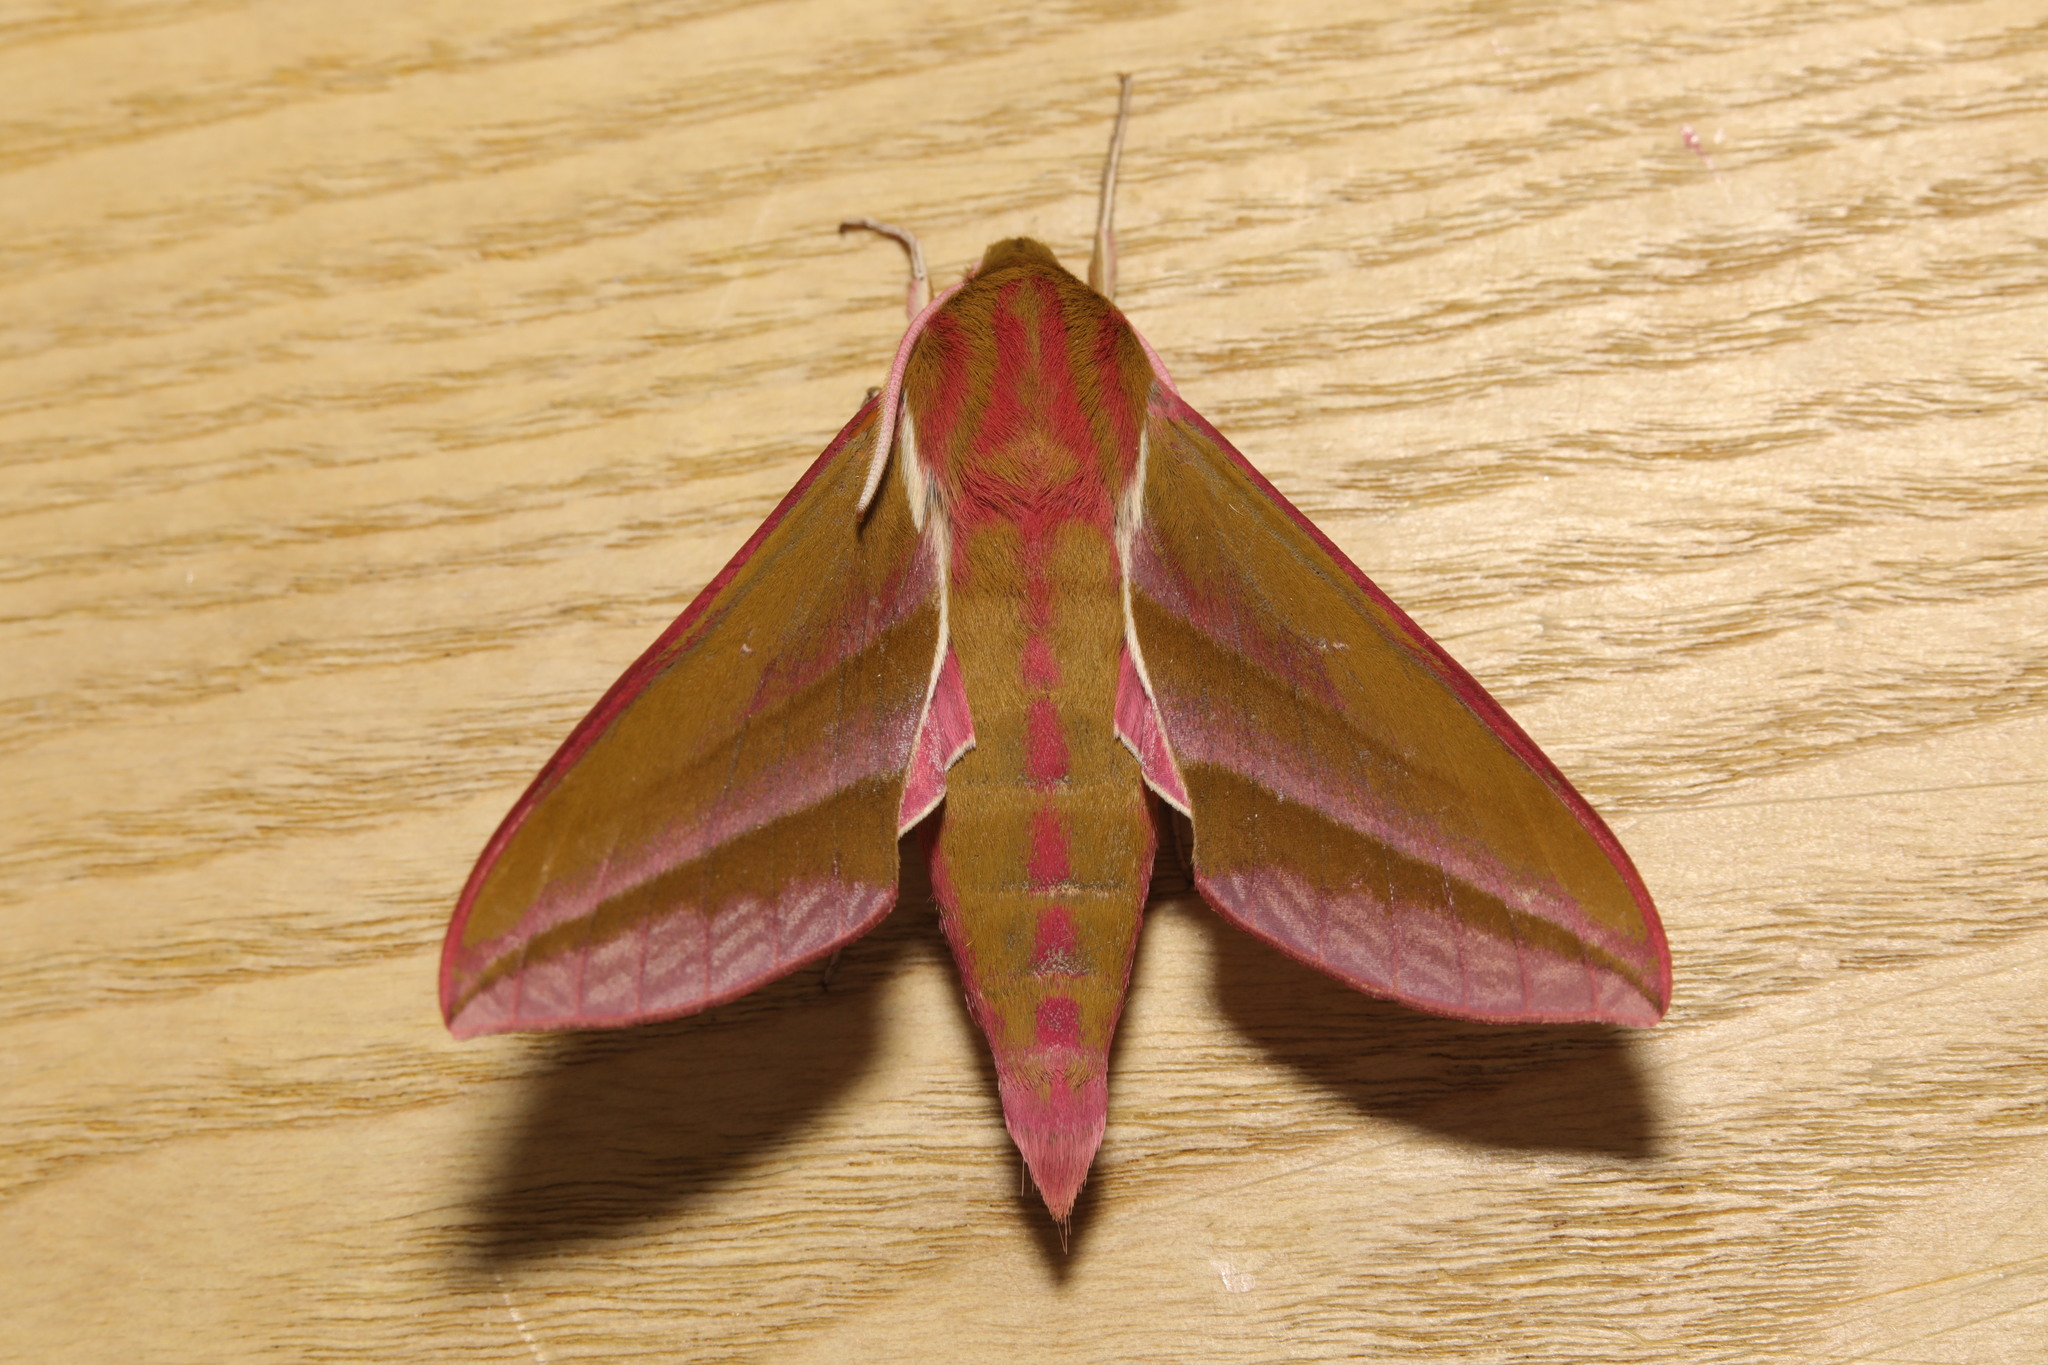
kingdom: Animalia
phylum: Arthropoda
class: Insecta
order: Lepidoptera
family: Sphingidae
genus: Deilephila
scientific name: Deilephila elpenor
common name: Elephant hawk-moth
